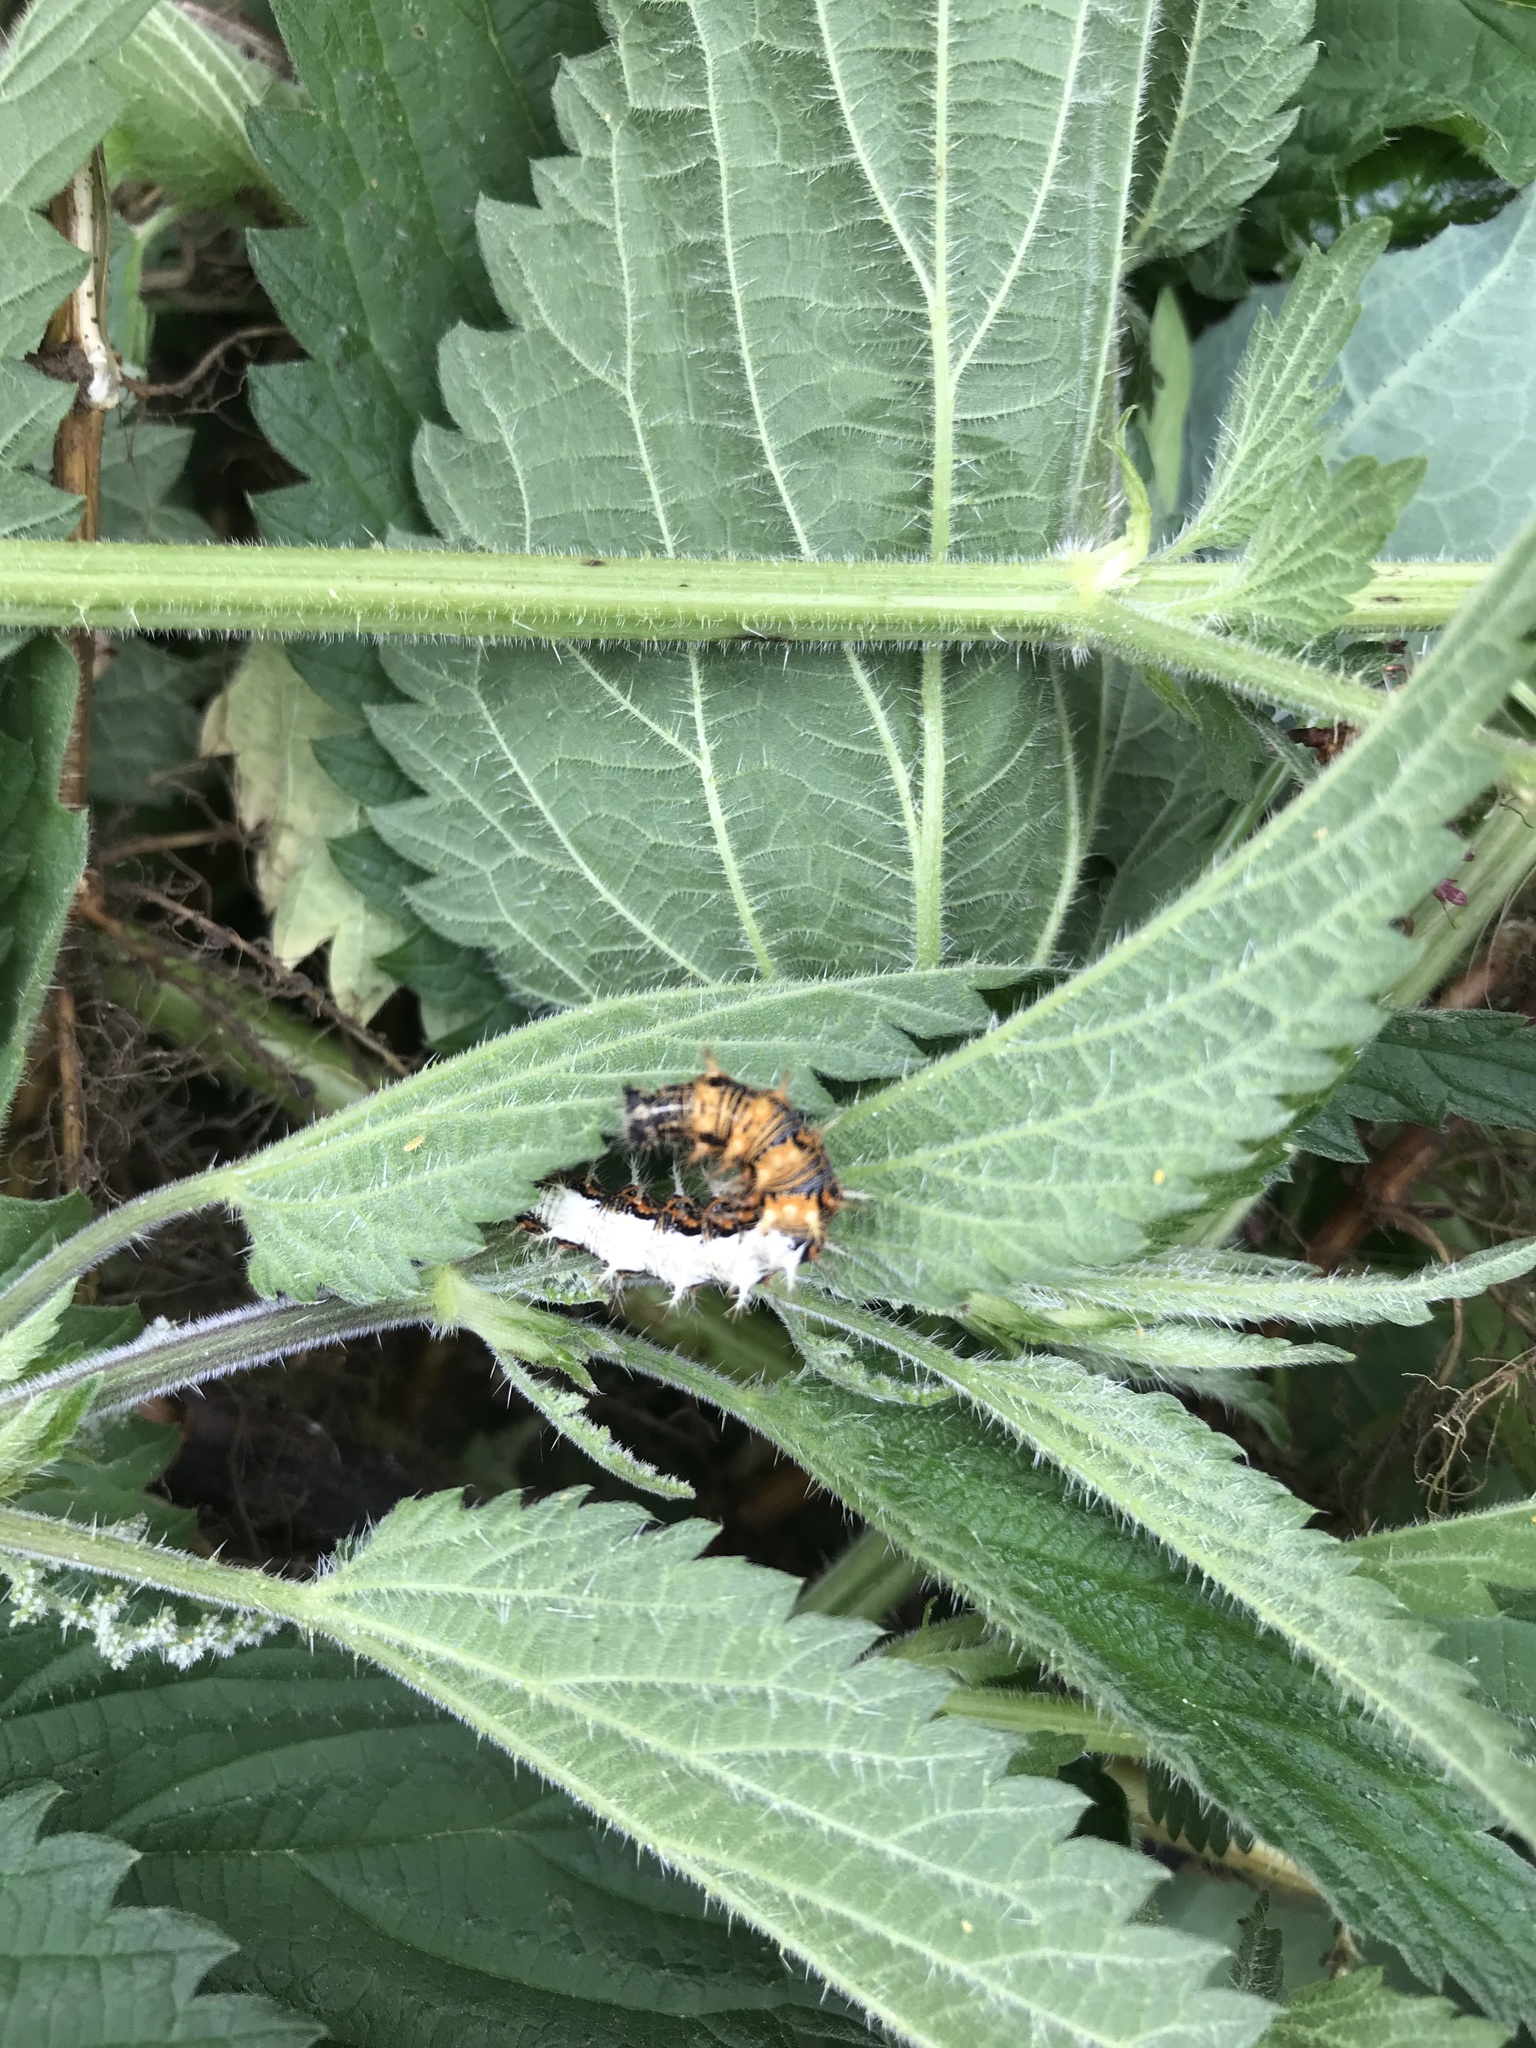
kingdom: Animalia
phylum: Arthropoda
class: Insecta
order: Lepidoptera
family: Nymphalidae
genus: Polygonia
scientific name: Polygonia c-album
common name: Comma
